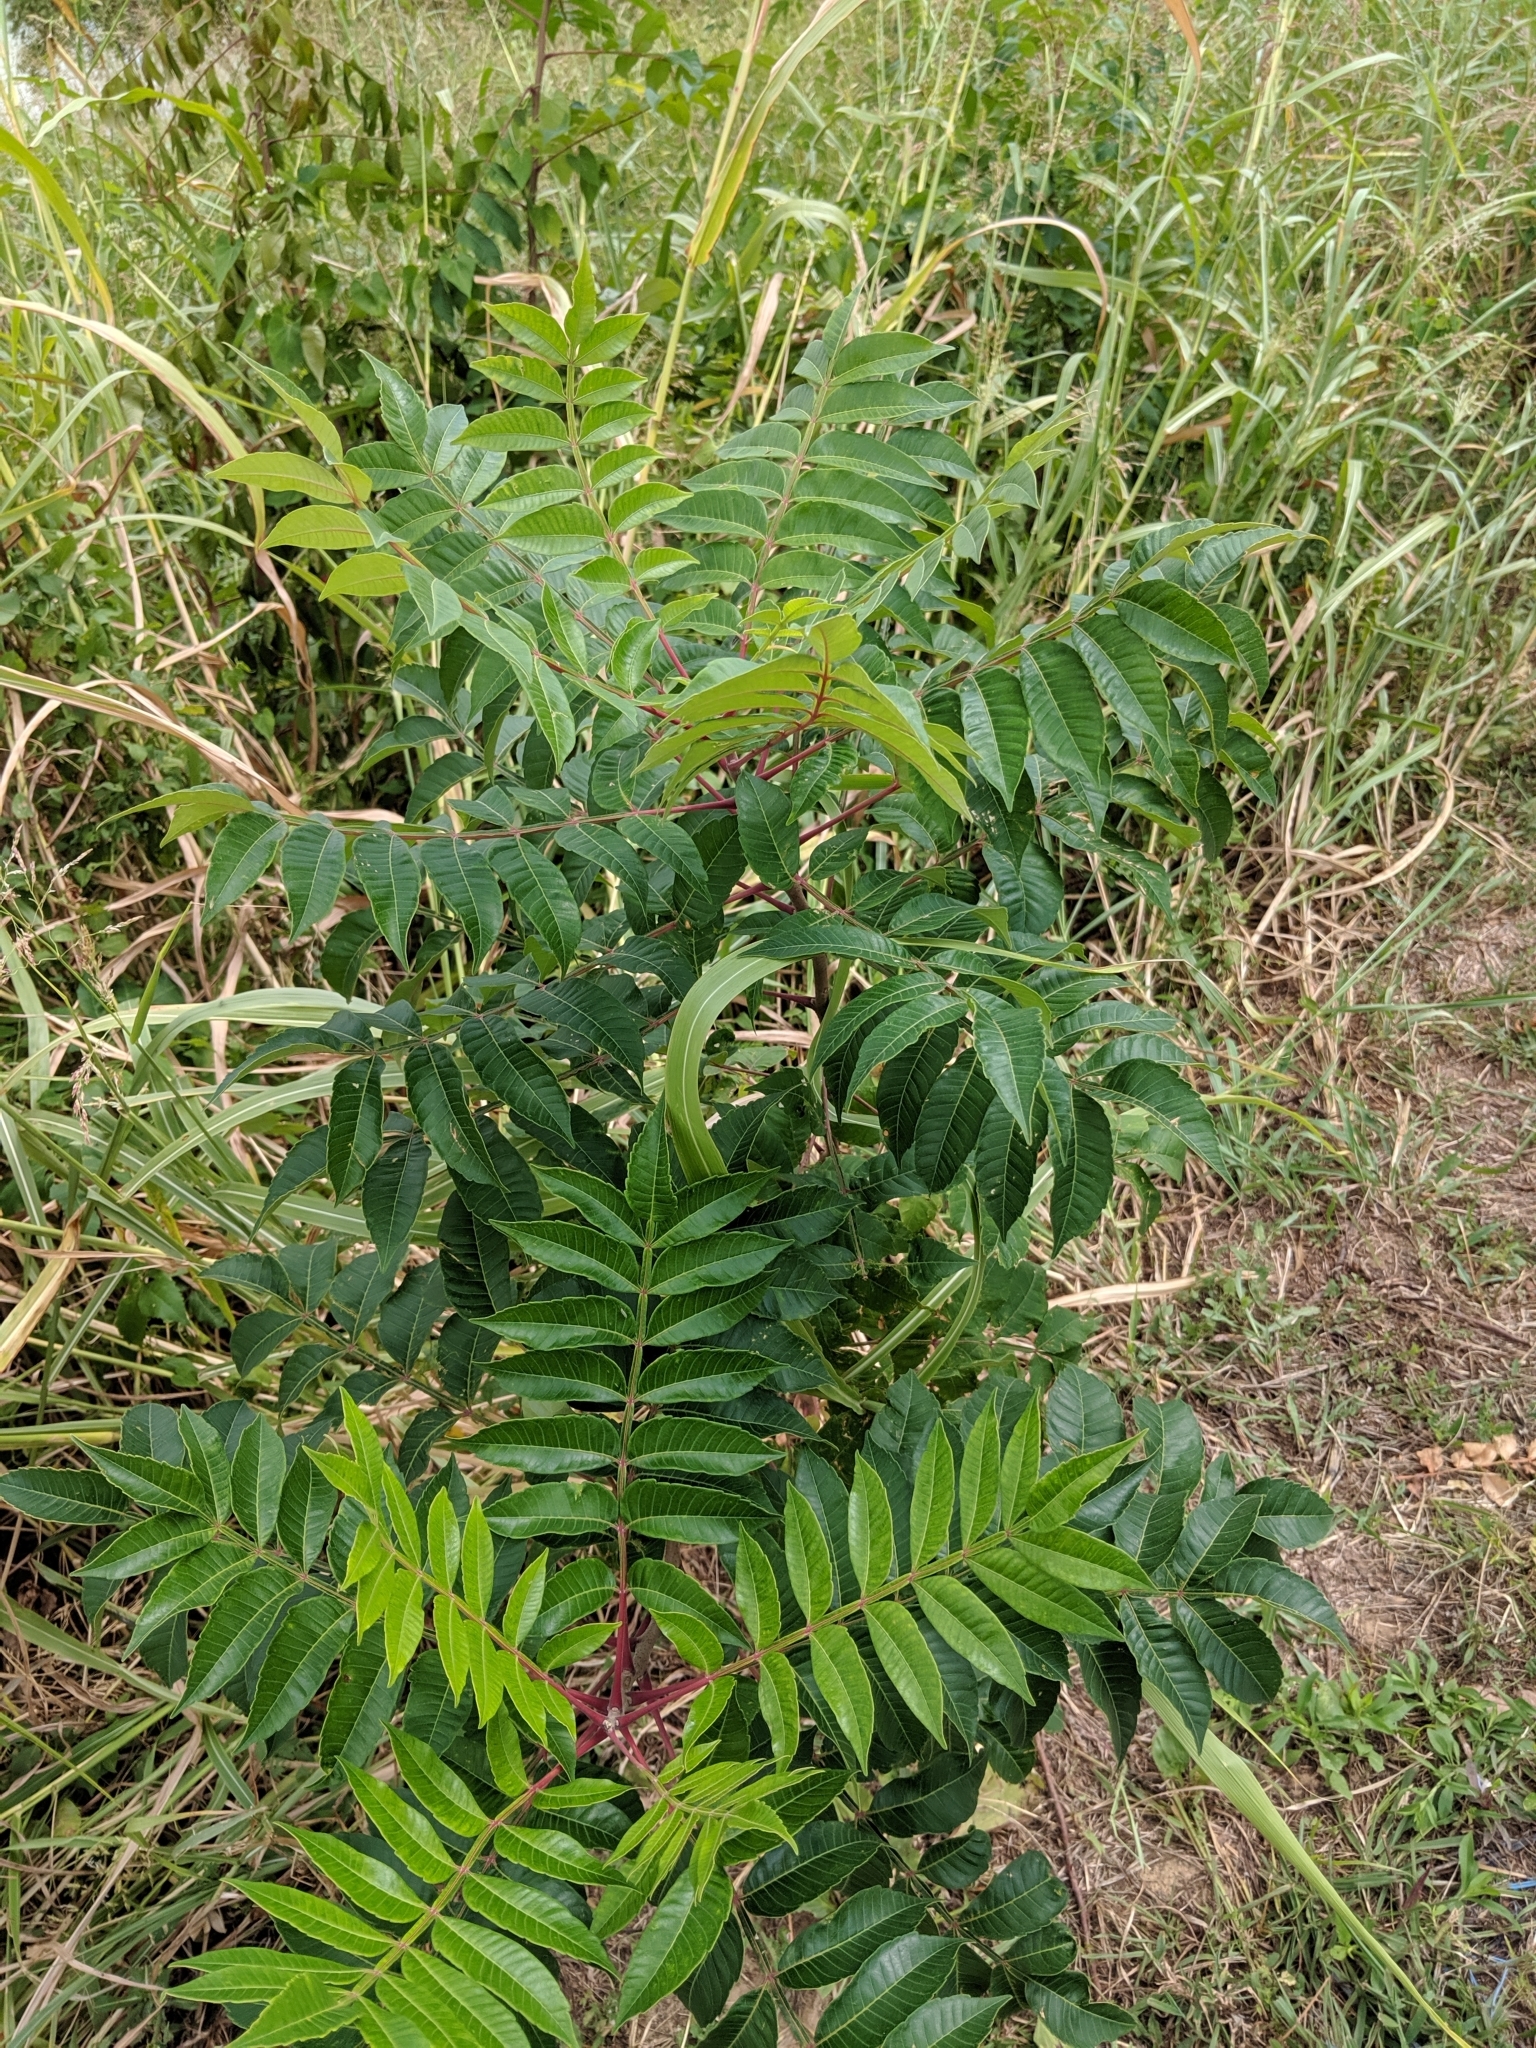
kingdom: Plantae
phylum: Tracheophyta
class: Magnoliopsida
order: Sapindales
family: Anacardiaceae
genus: Rhus
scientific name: Rhus copallina
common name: Shining sumac
